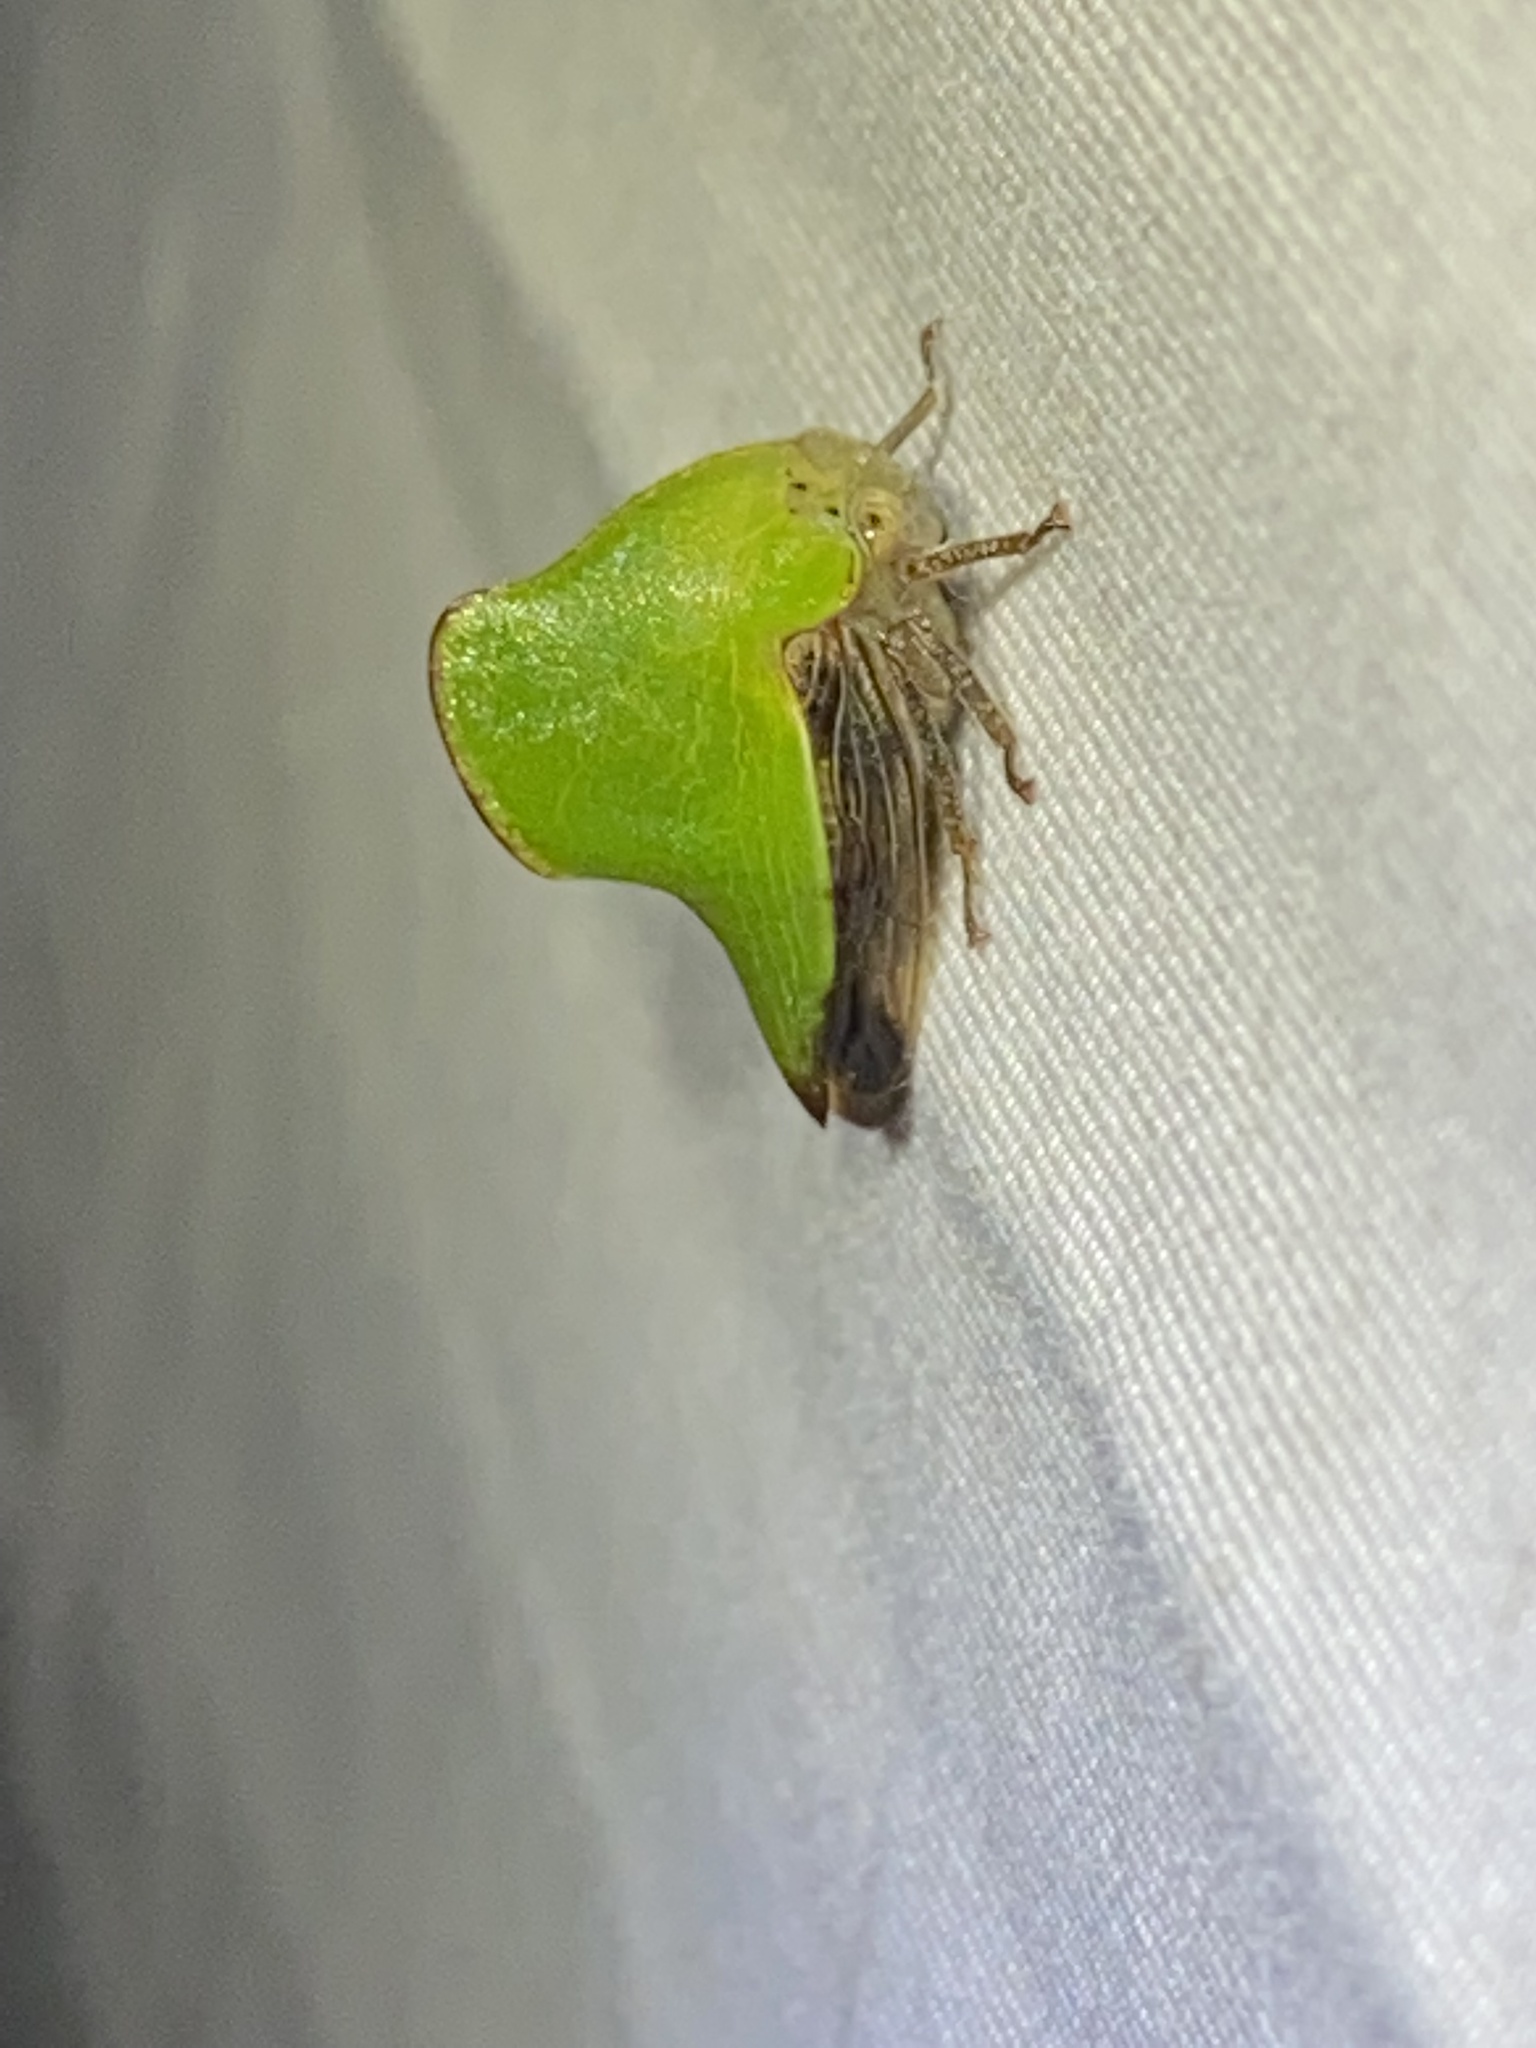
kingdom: Animalia
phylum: Arthropoda
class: Insecta
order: Hemiptera
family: Membracidae
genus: Helonica
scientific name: Helonica excelsa
